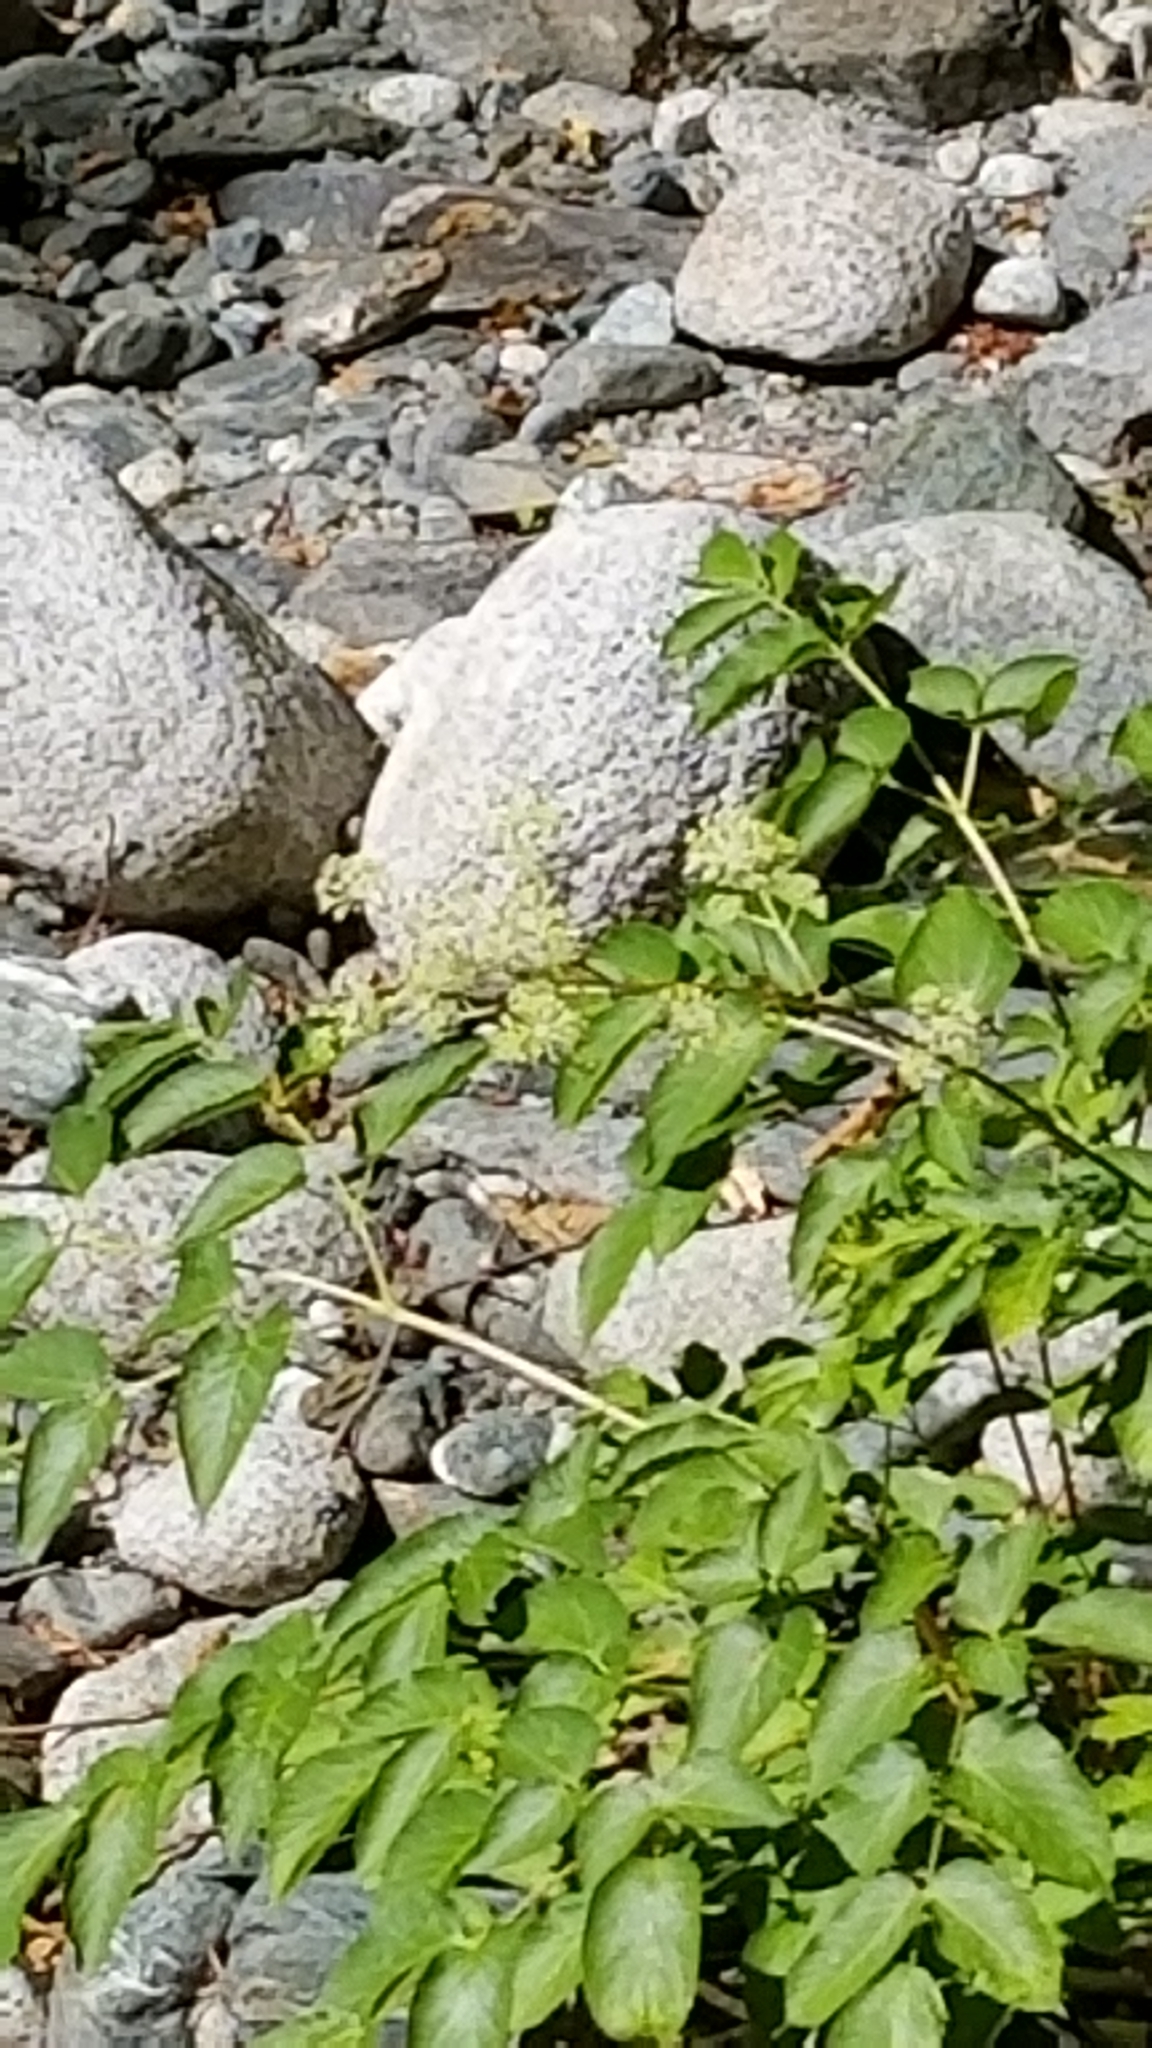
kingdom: Plantae
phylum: Tracheophyta
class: Magnoliopsida
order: Apiales
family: Araliaceae
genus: Aralia
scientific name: Aralia californica
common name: California-ginseng
